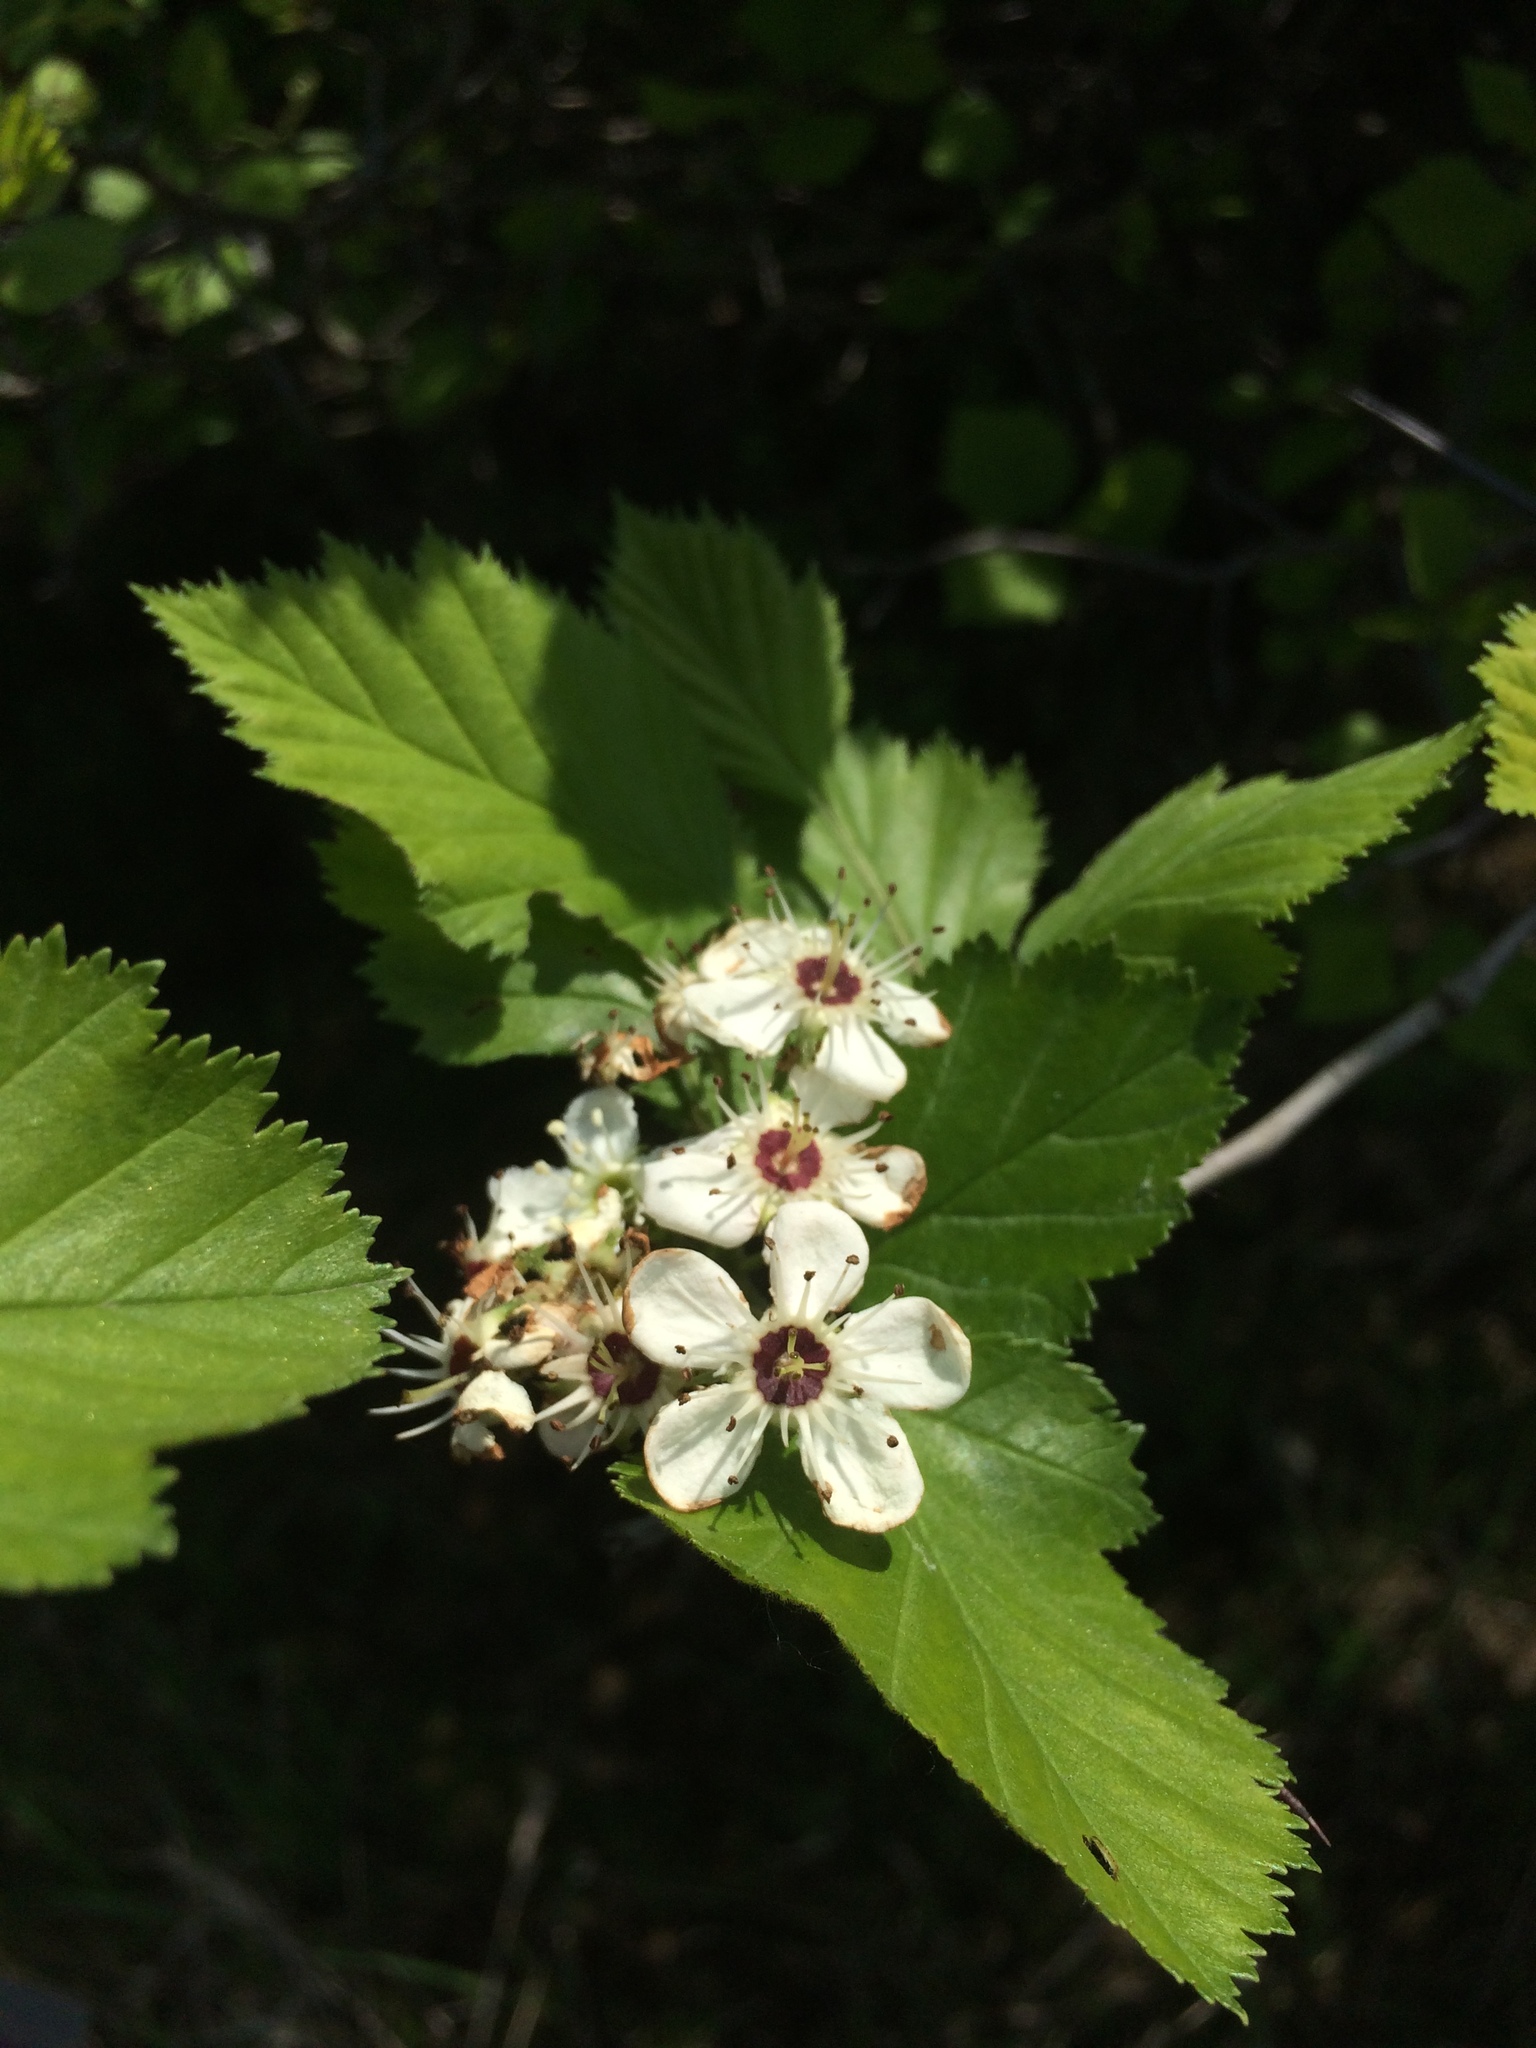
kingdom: Plantae
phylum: Tracheophyta
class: Magnoliopsida
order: Rosales
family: Rosaceae
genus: Crataegus
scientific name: Crataegus submollis
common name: Hairy cockspurthorn
